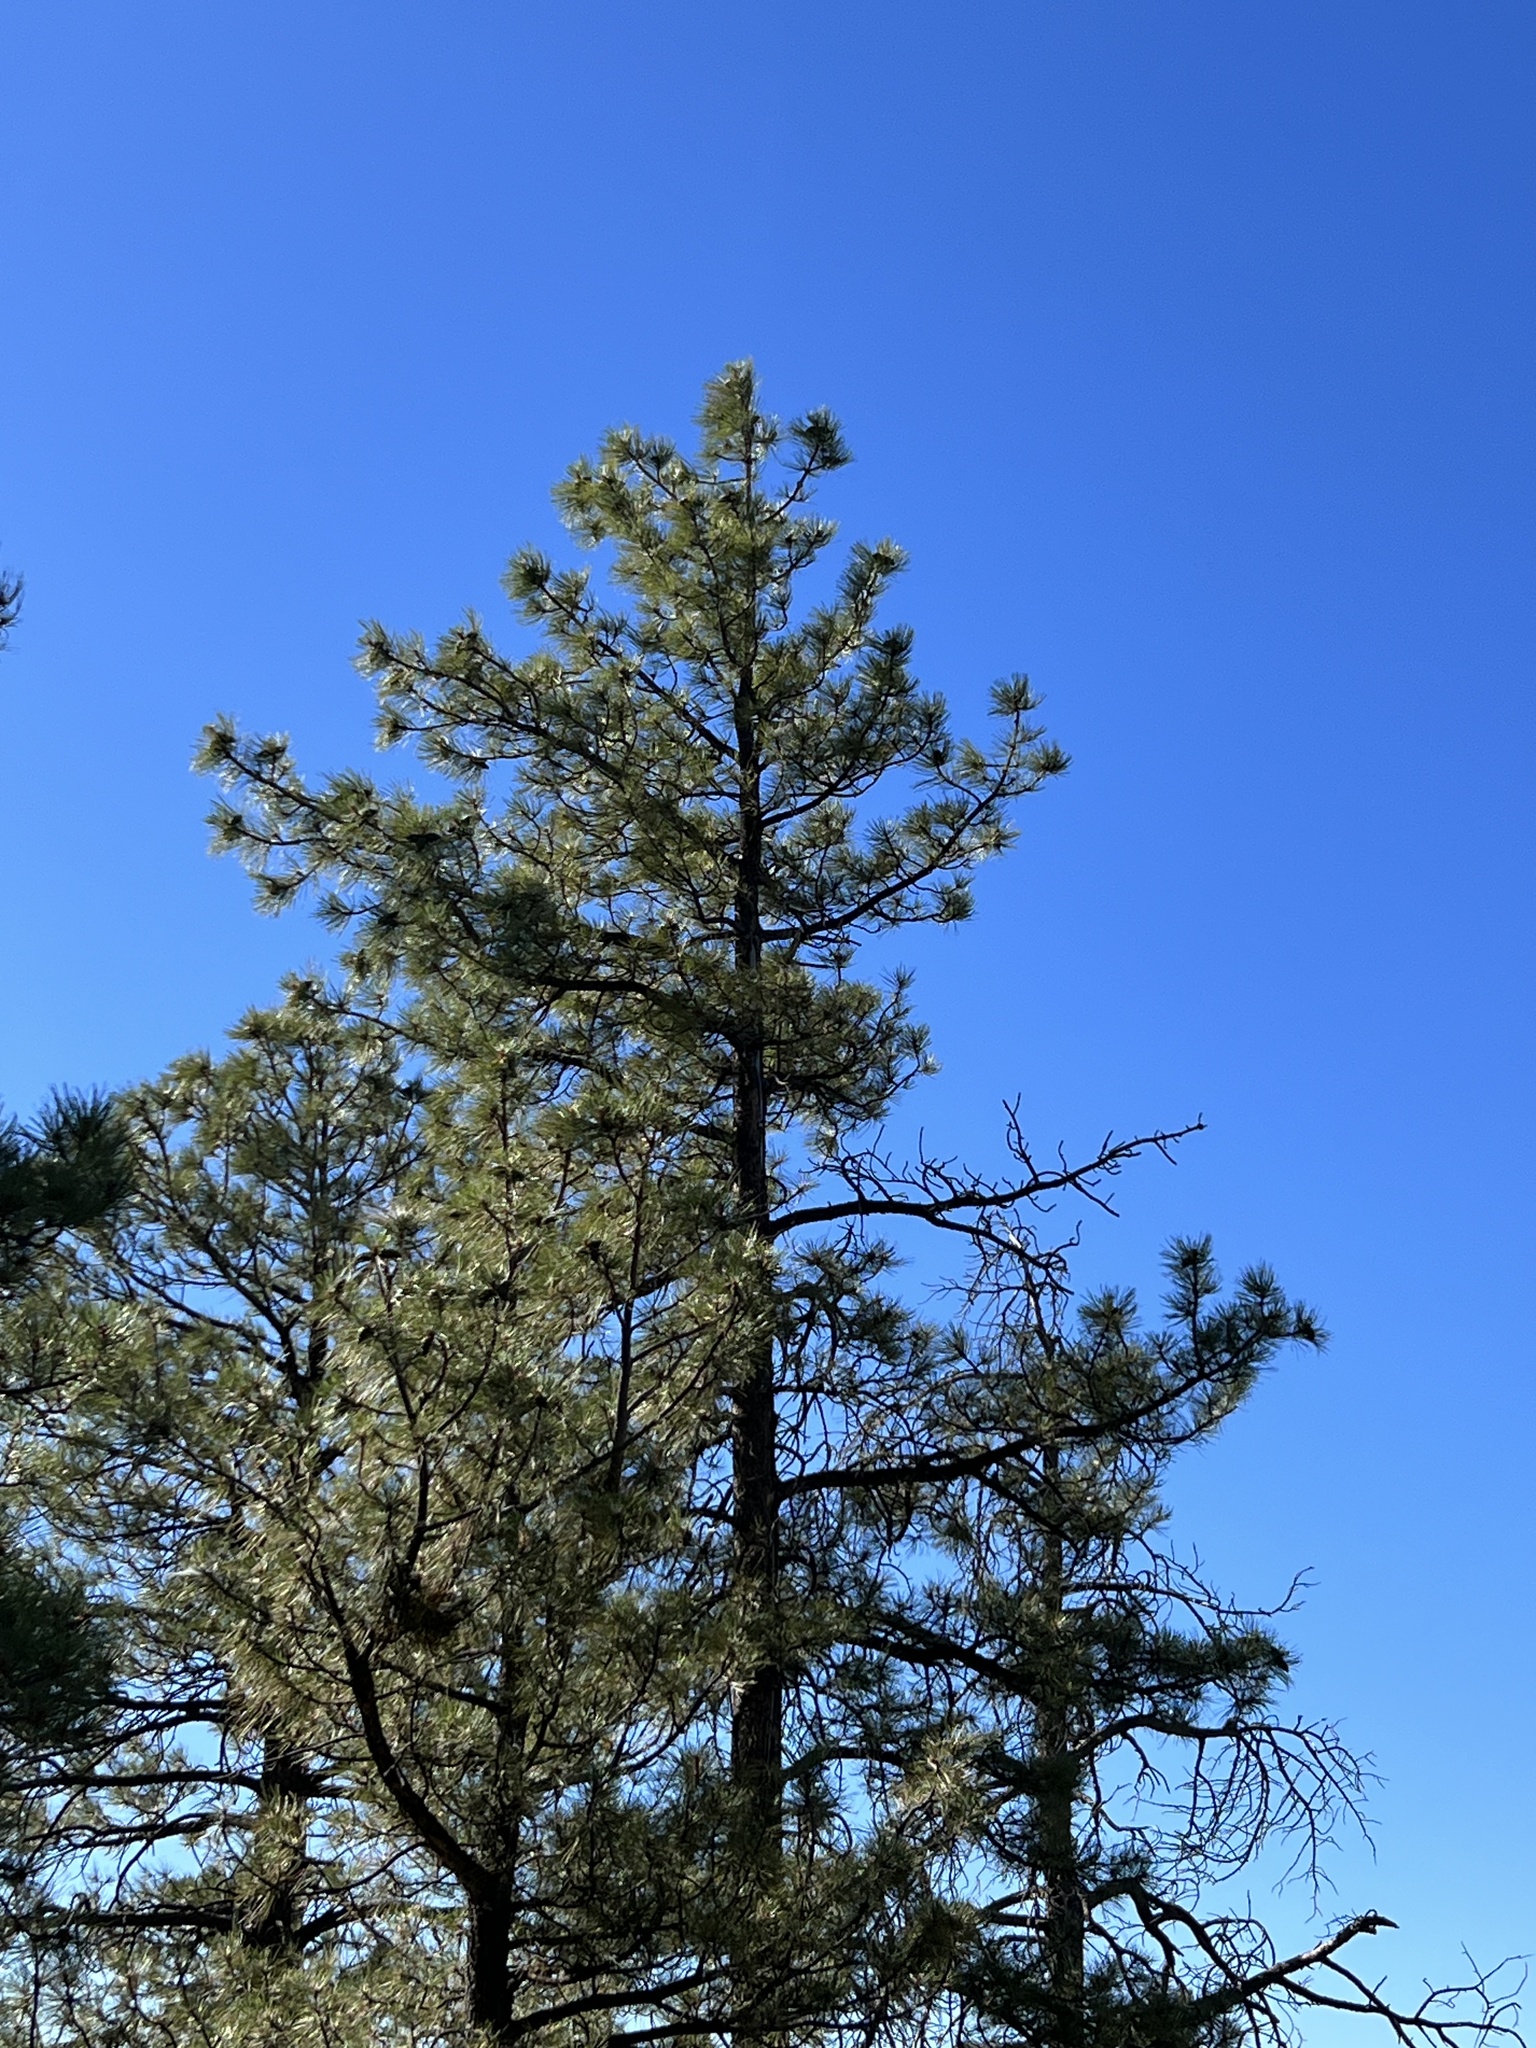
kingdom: Plantae
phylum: Tracheophyta
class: Pinopsida
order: Pinales
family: Pinaceae
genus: Pinus
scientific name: Pinus ponderosa
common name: Western yellow-pine
